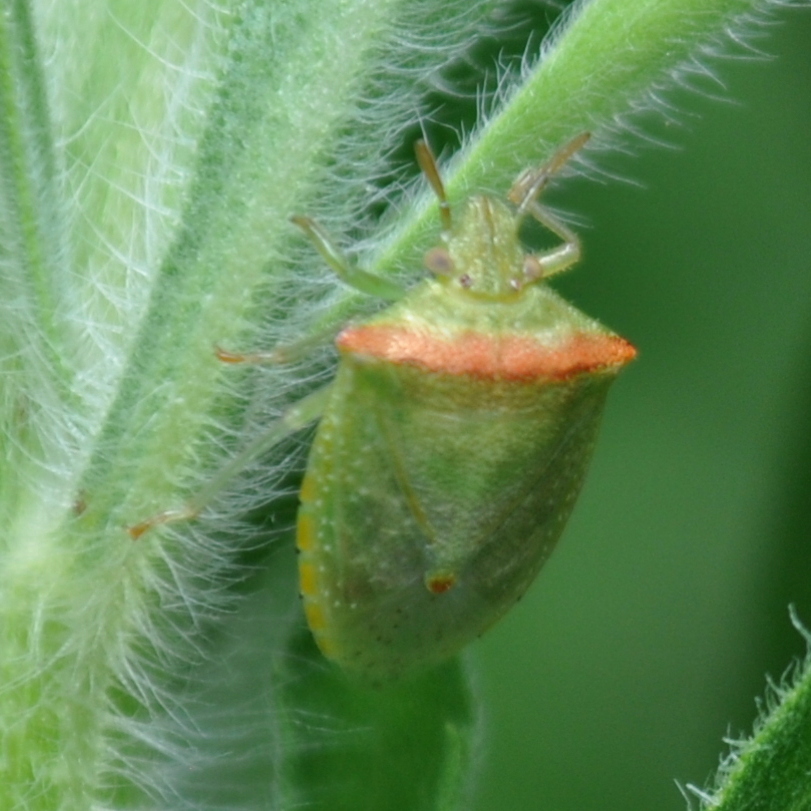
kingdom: Animalia
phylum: Arthropoda
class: Insecta
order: Hemiptera
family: Pentatomidae
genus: Thyanta
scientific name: Thyanta humilis
